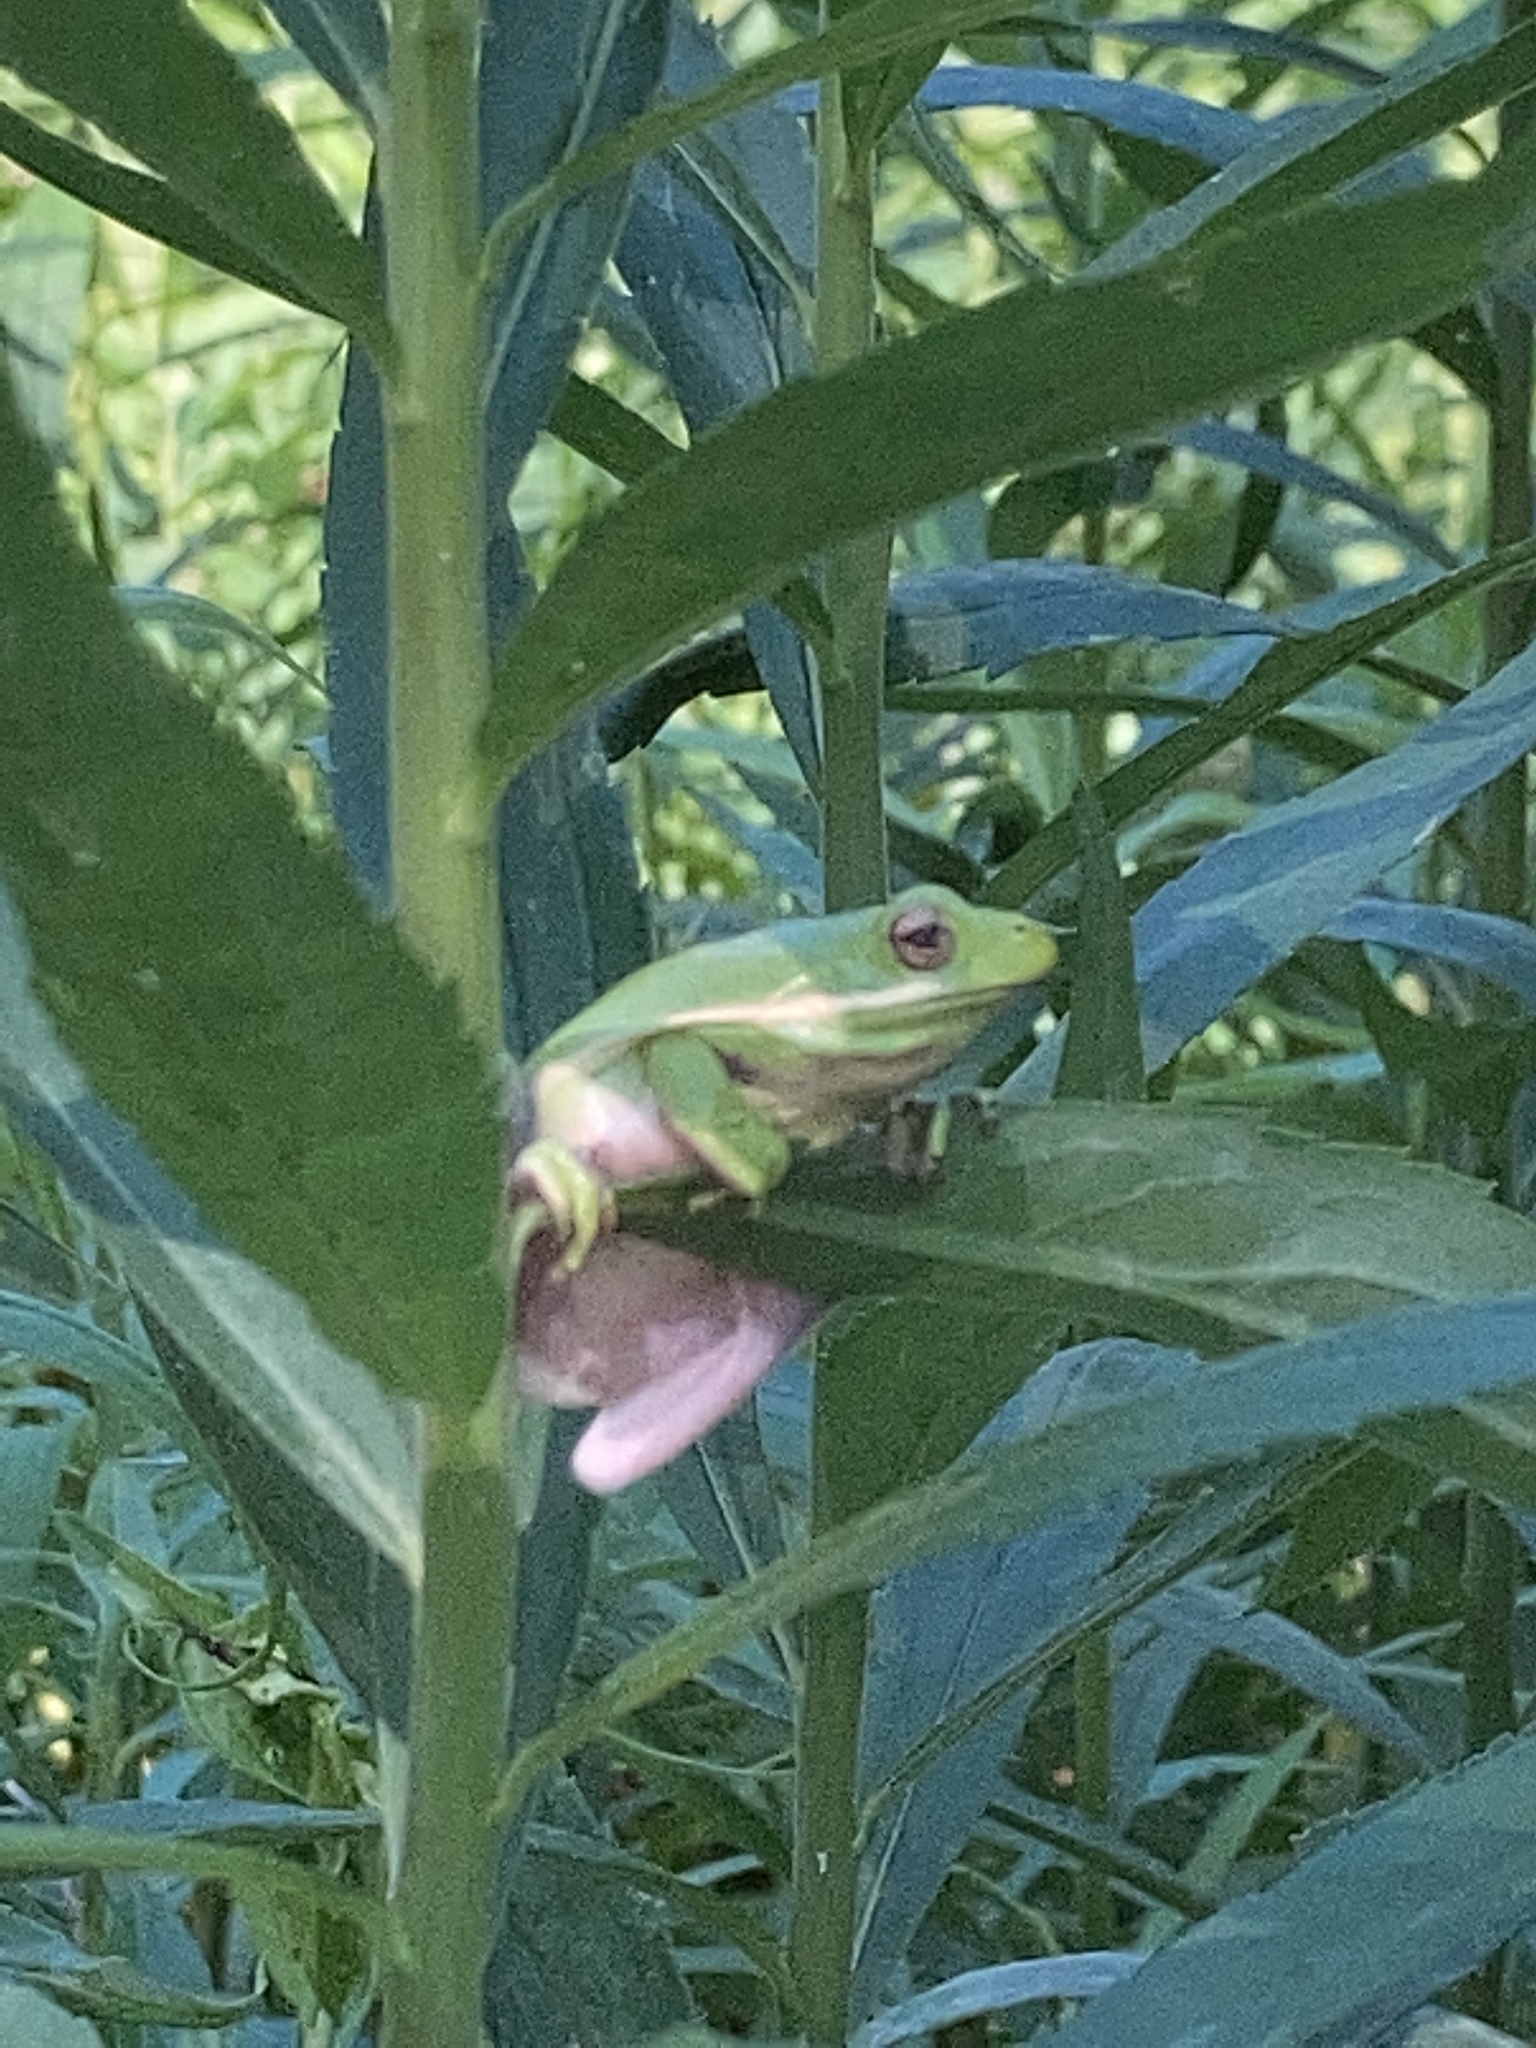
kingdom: Animalia
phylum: Chordata
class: Amphibia
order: Anura
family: Hylidae
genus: Dryophytes
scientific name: Dryophytes cinereus
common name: Green treefrog
